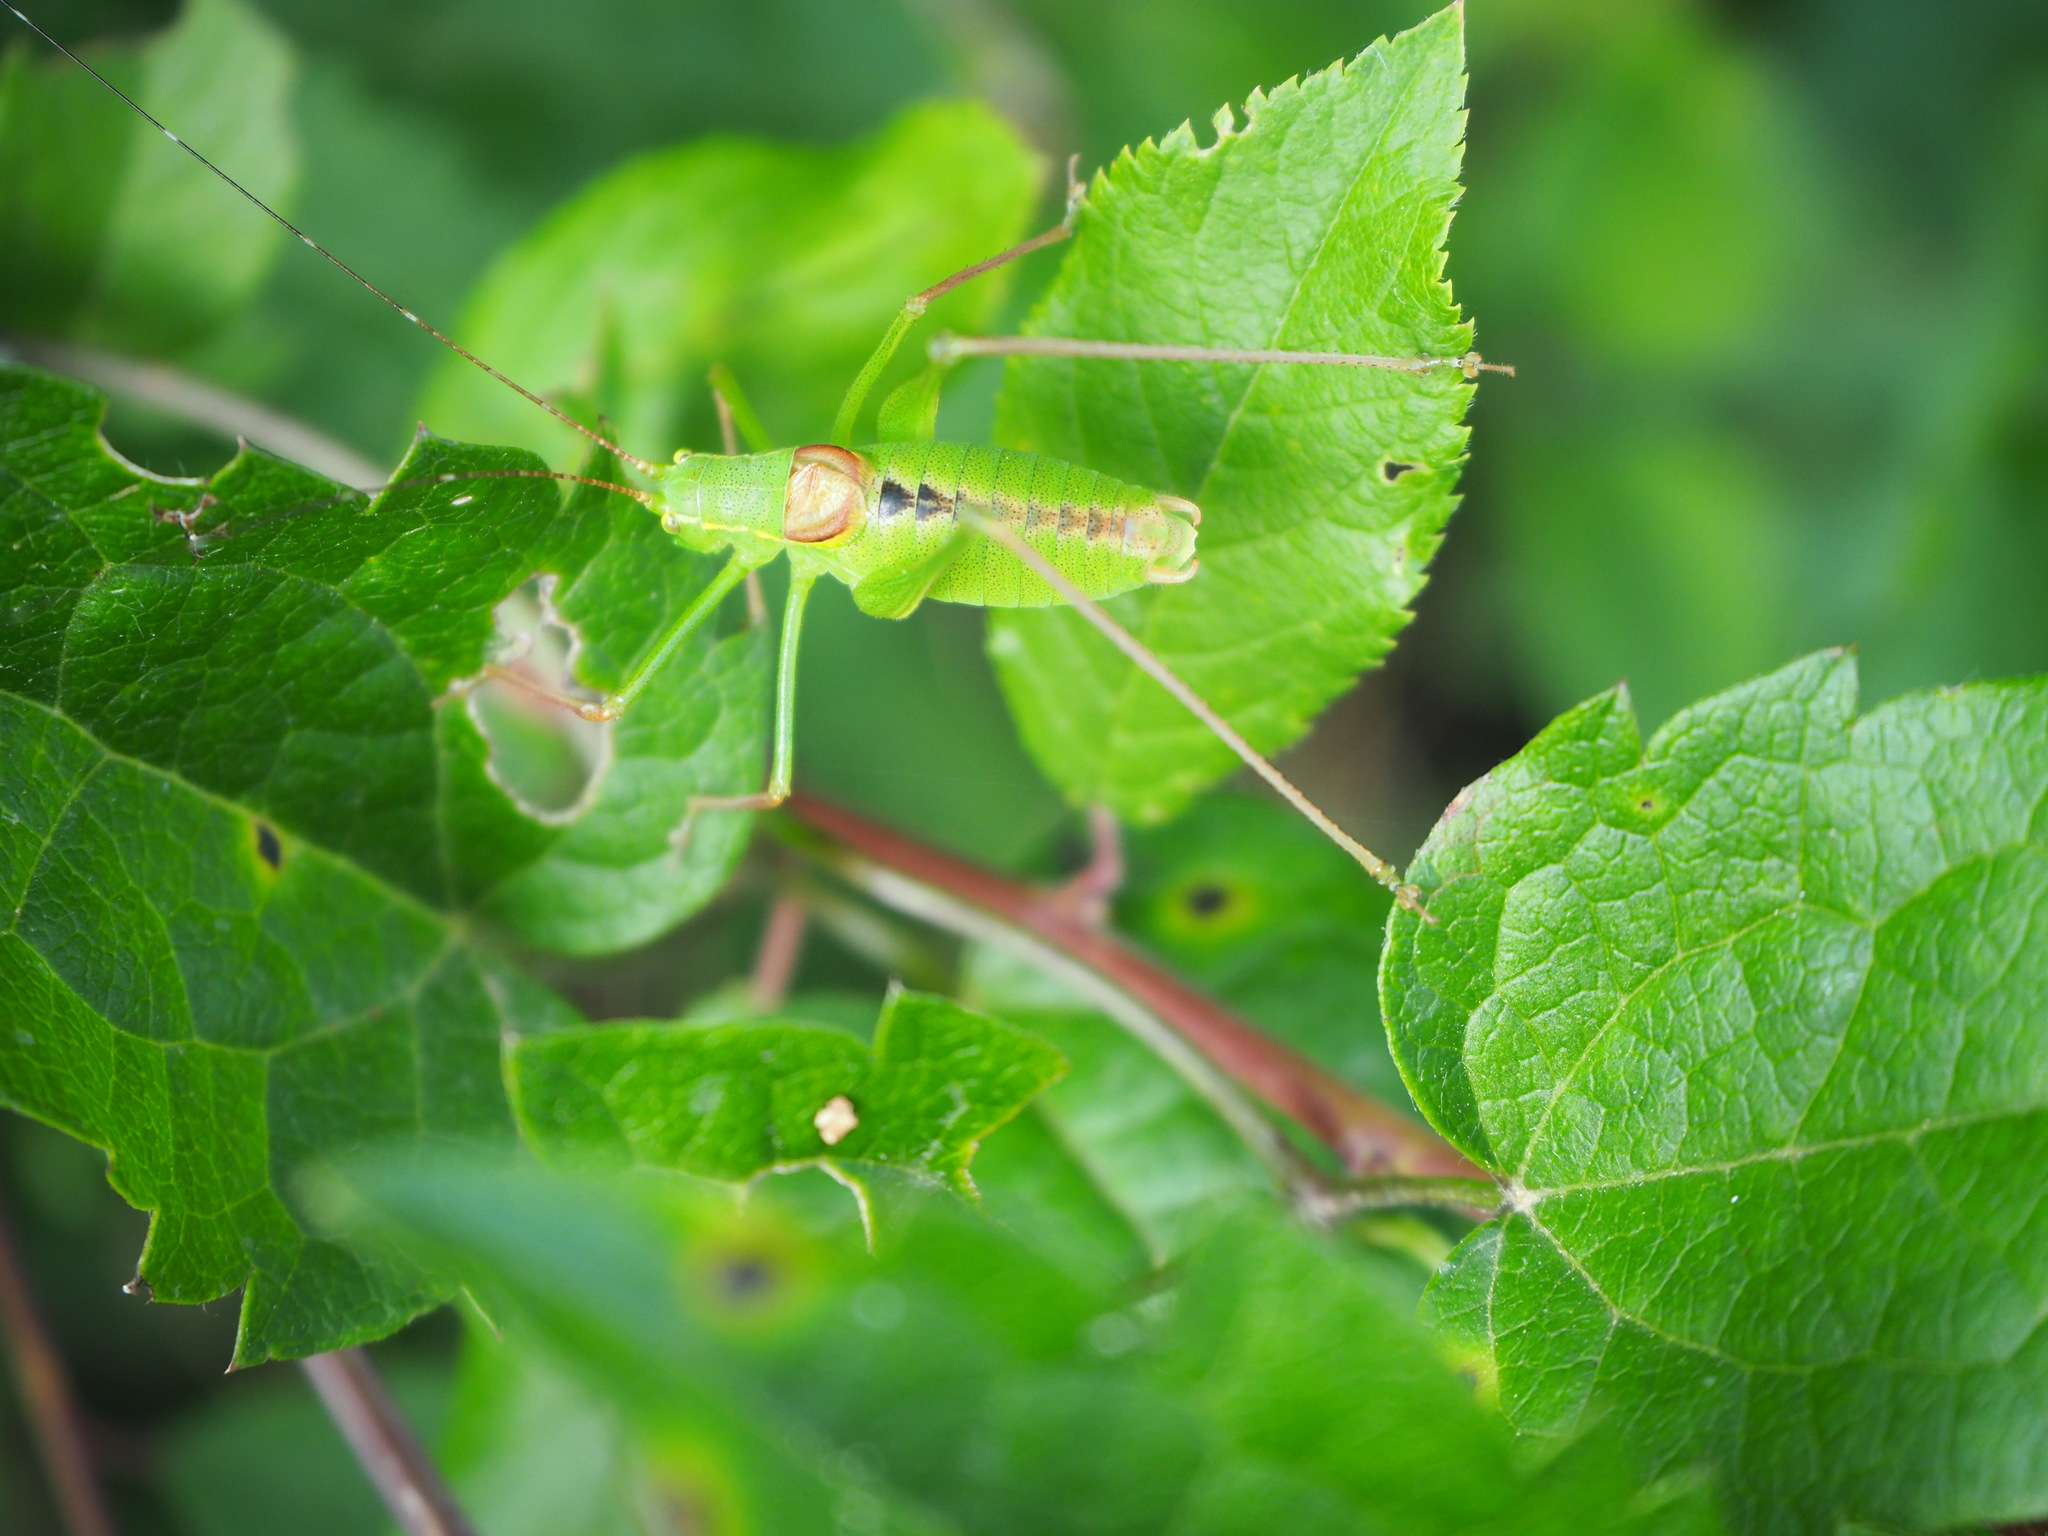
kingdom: Animalia
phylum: Arthropoda
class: Insecta
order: Orthoptera
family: Tettigoniidae
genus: Leptophyes
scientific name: Leptophyes laticauda
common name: Long-tailed speckled bush-cricket
